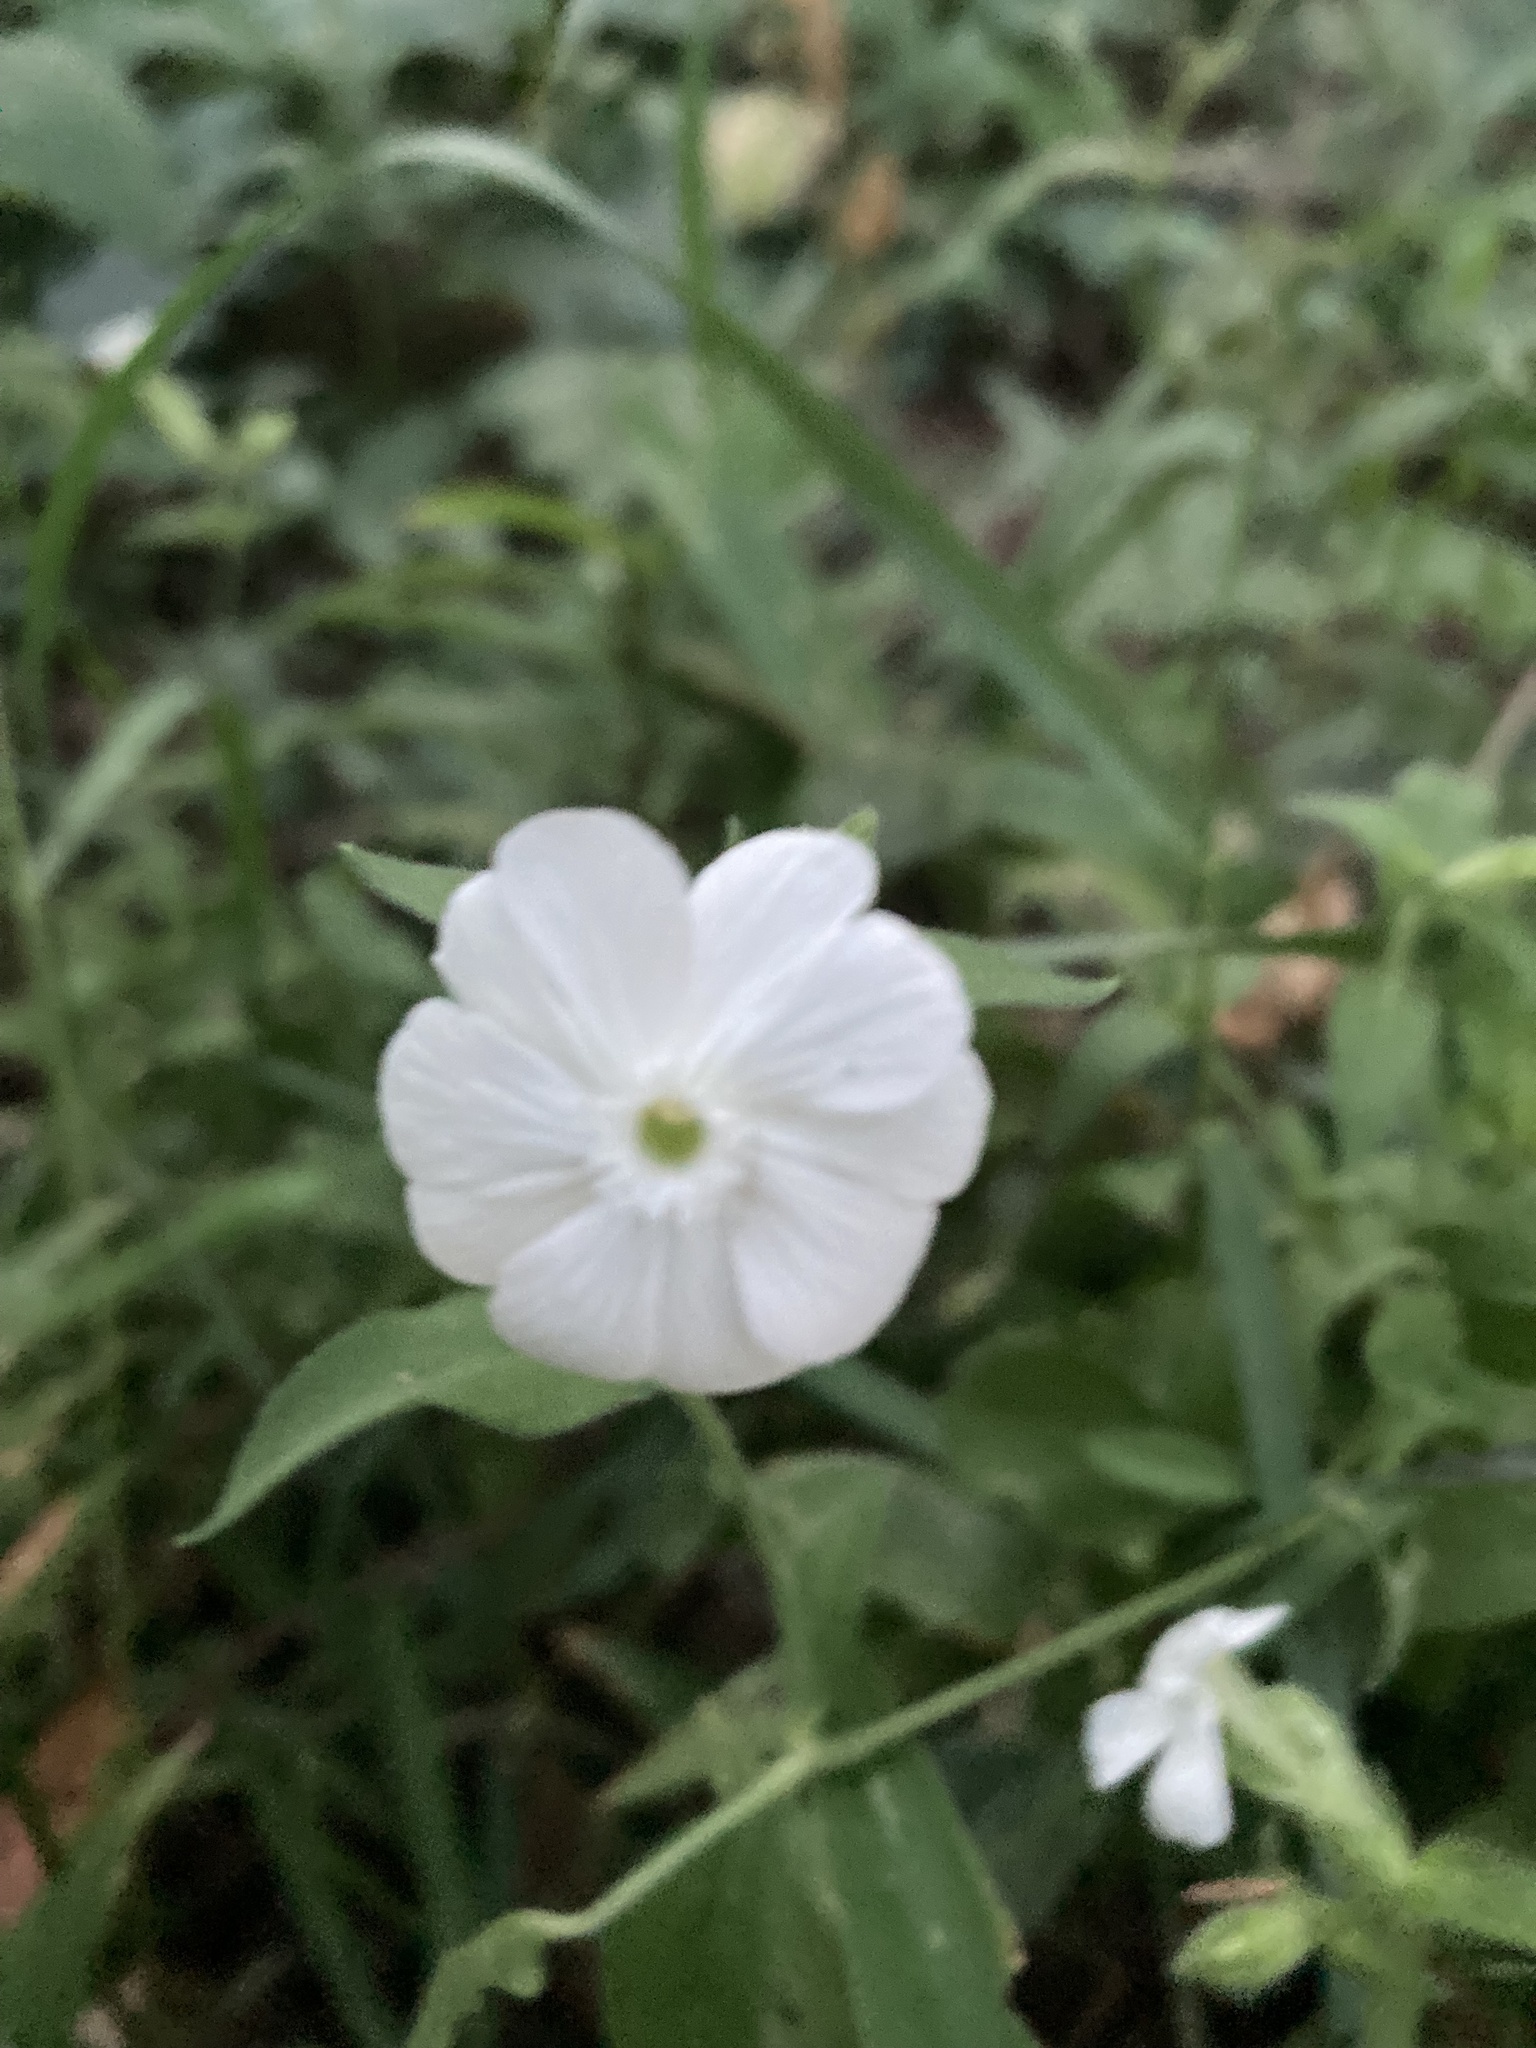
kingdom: Plantae
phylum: Tracheophyta
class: Magnoliopsida
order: Caryophyllales
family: Caryophyllaceae
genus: Silene
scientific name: Silene latifolia
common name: White campion
